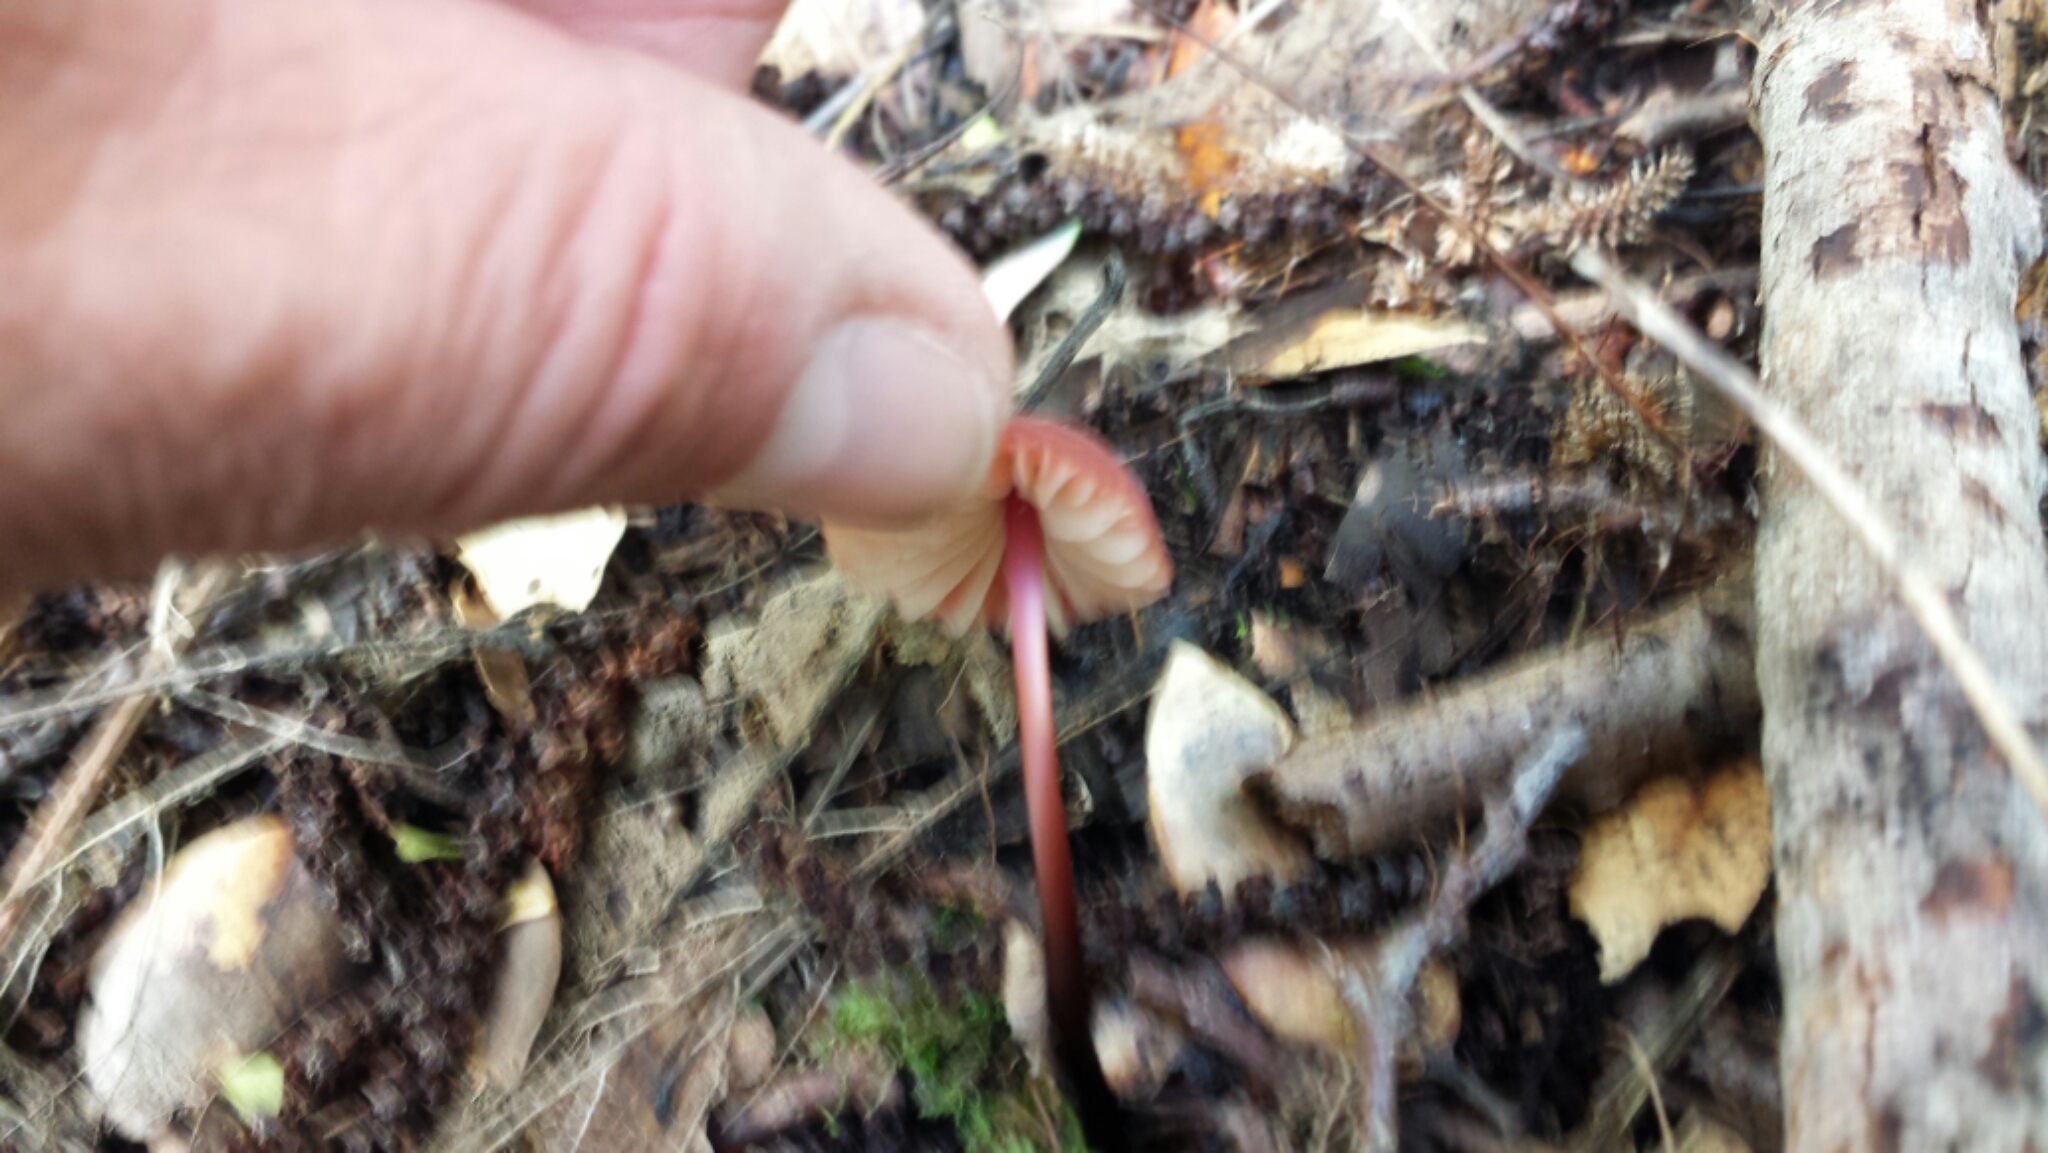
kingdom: Fungi
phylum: Basidiomycota
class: Agaricomycetes
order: Agaricales
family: Marasmiaceae
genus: Marasmius
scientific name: Marasmius plicatulus
